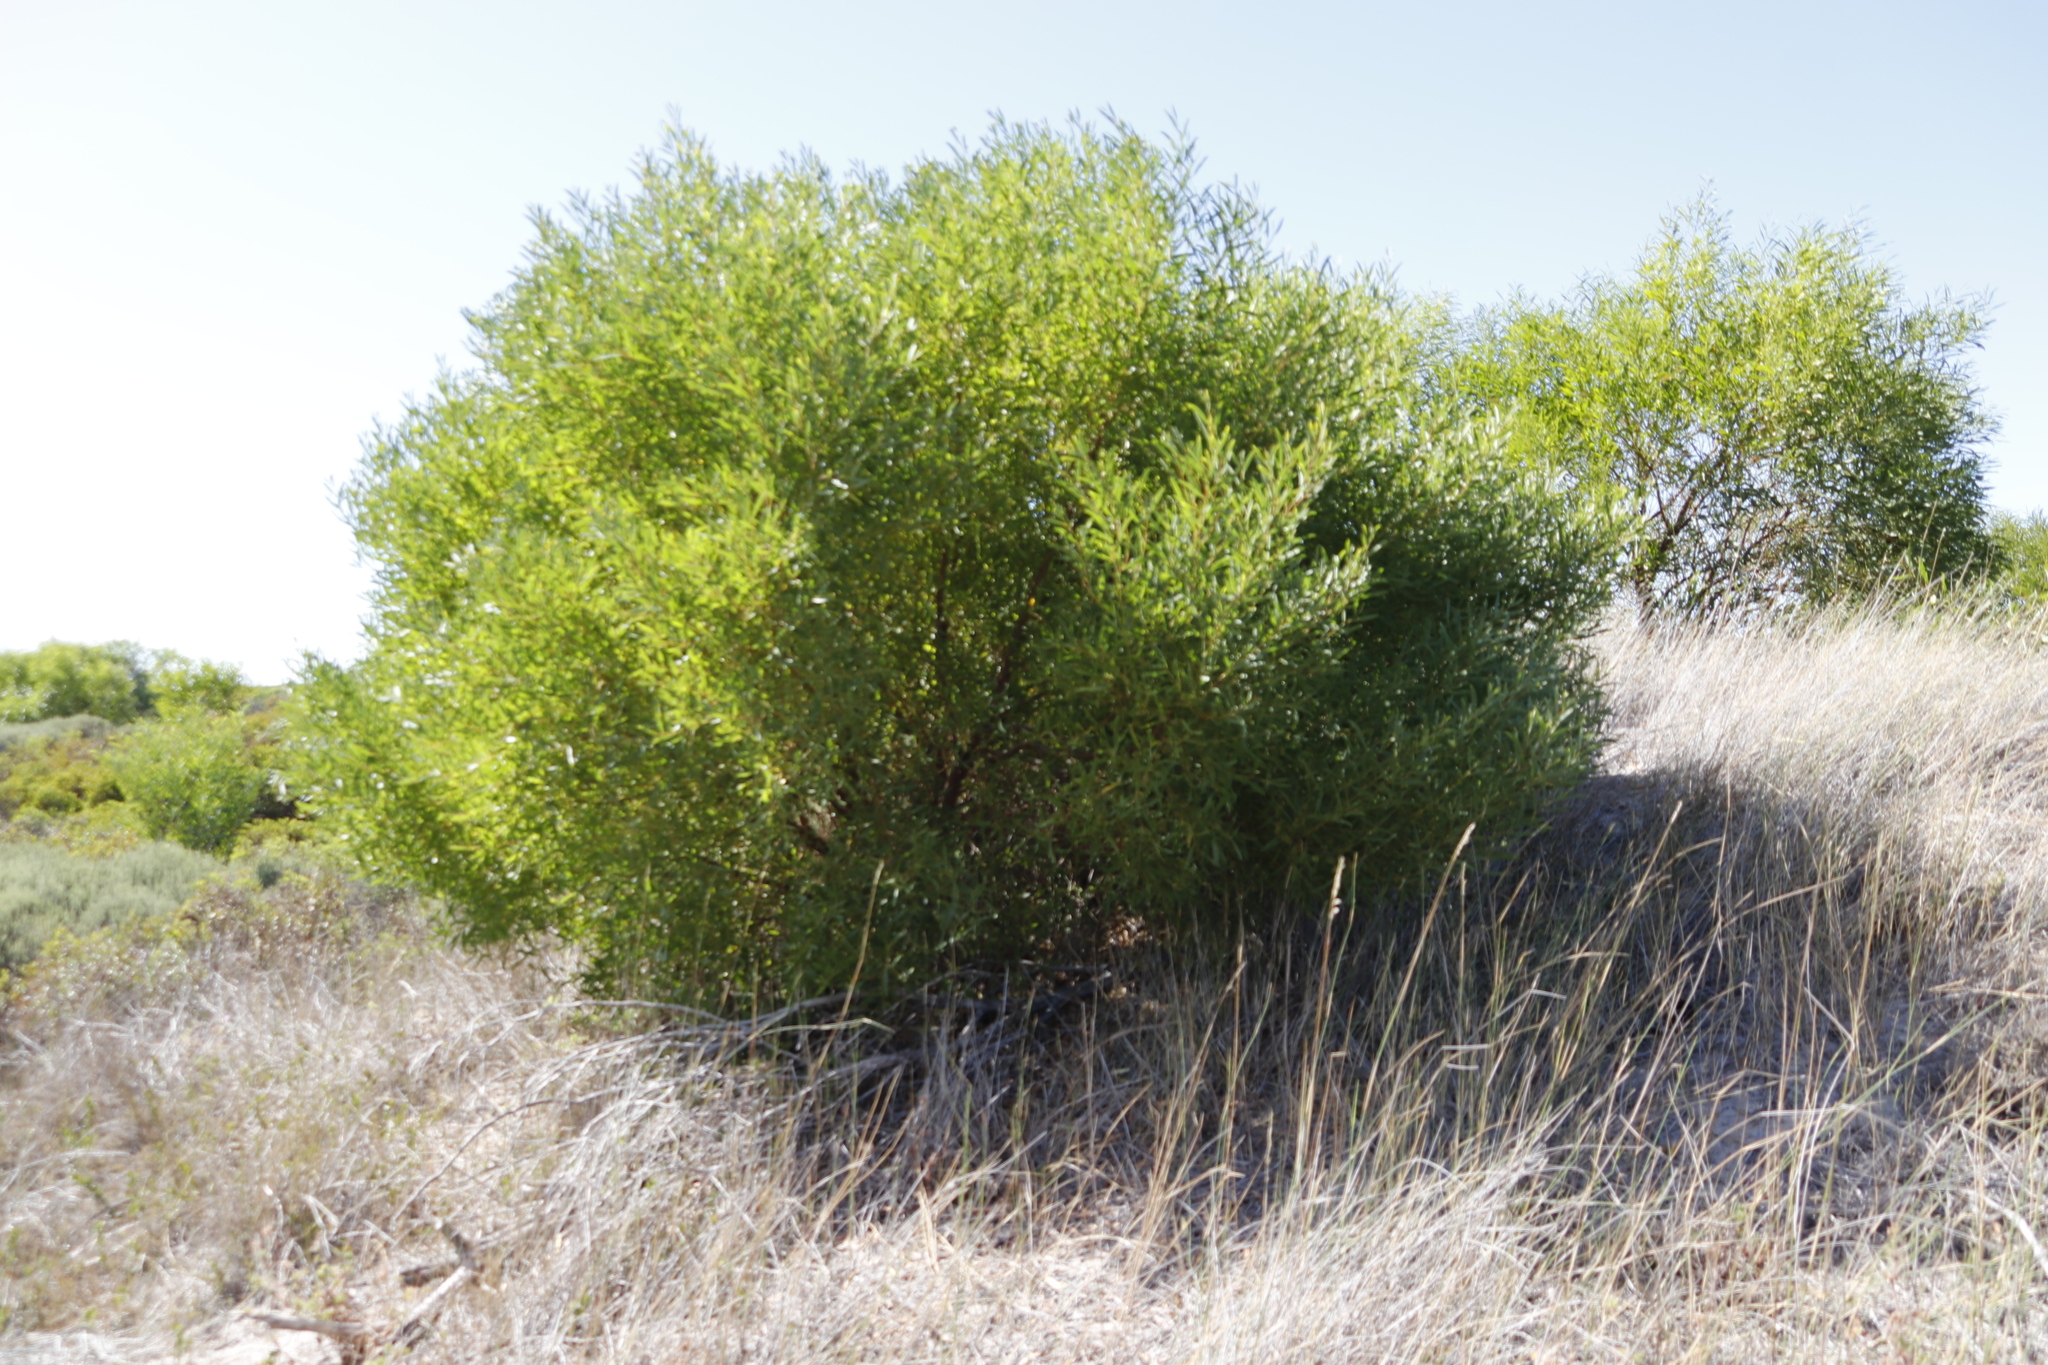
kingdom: Plantae
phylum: Tracheophyta
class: Magnoliopsida
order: Fabales
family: Fabaceae
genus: Acacia
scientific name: Acacia cyclops
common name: Coastal wattle
